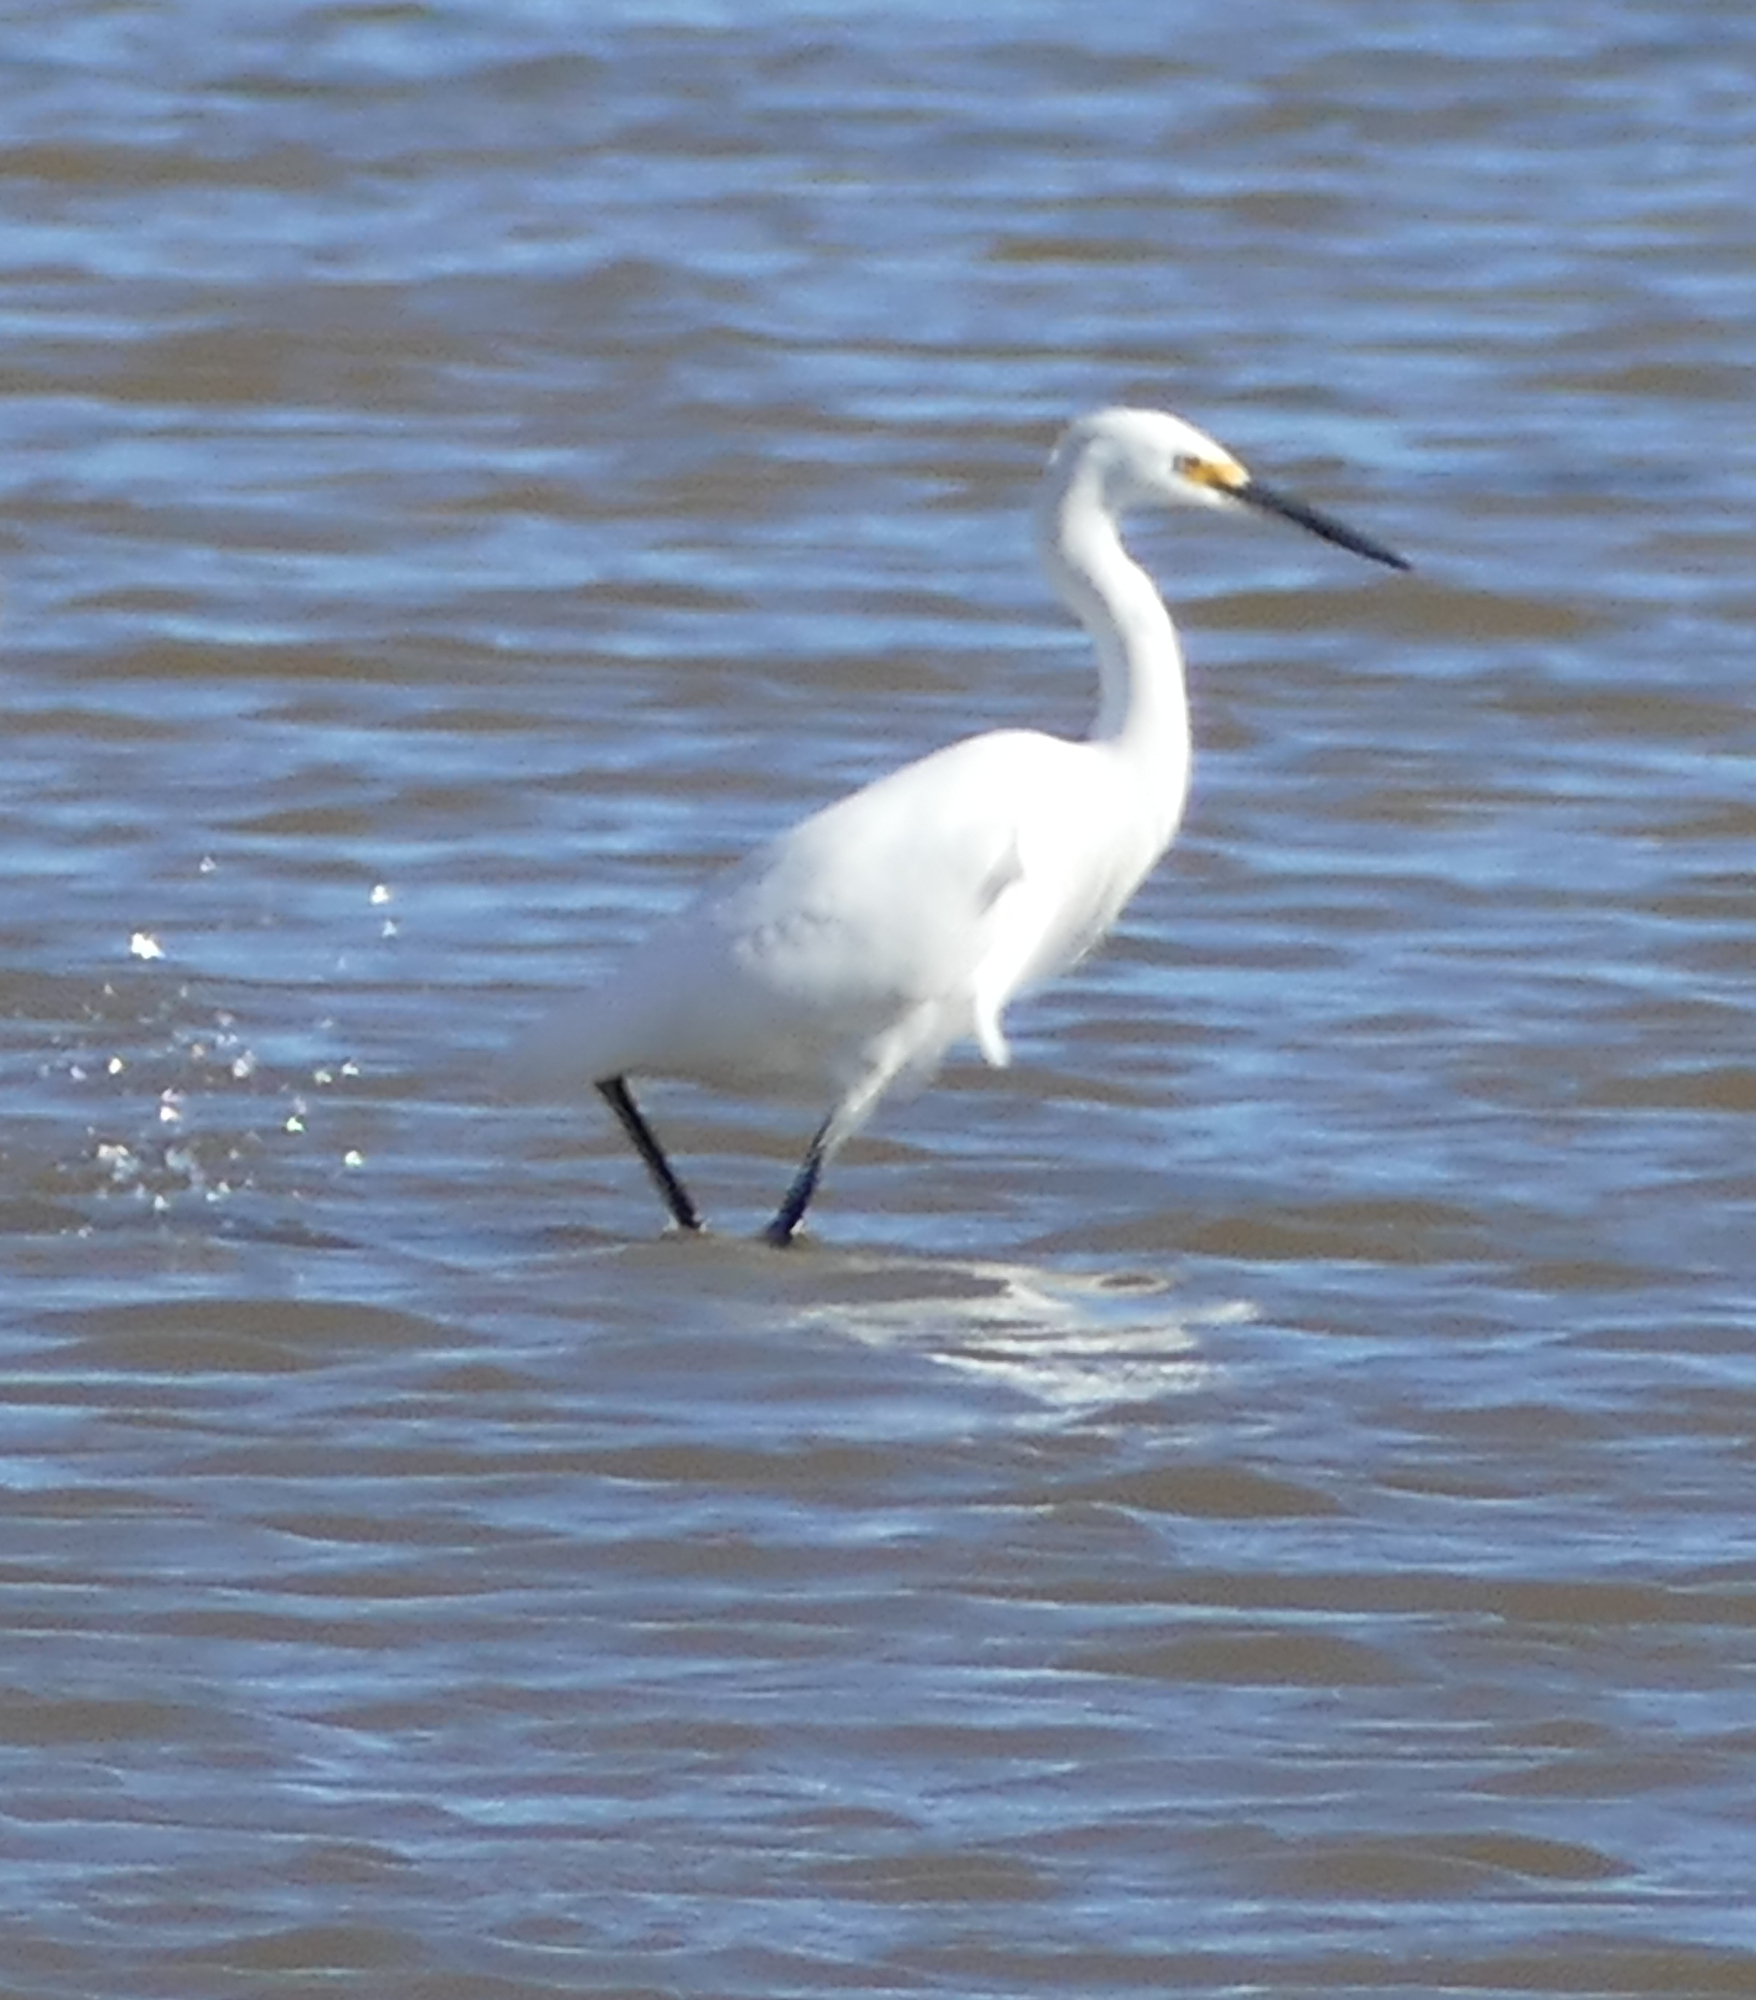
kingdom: Animalia
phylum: Chordata
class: Aves
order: Pelecaniformes
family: Ardeidae
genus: Egretta
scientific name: Egretta thula
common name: Snowy egret
